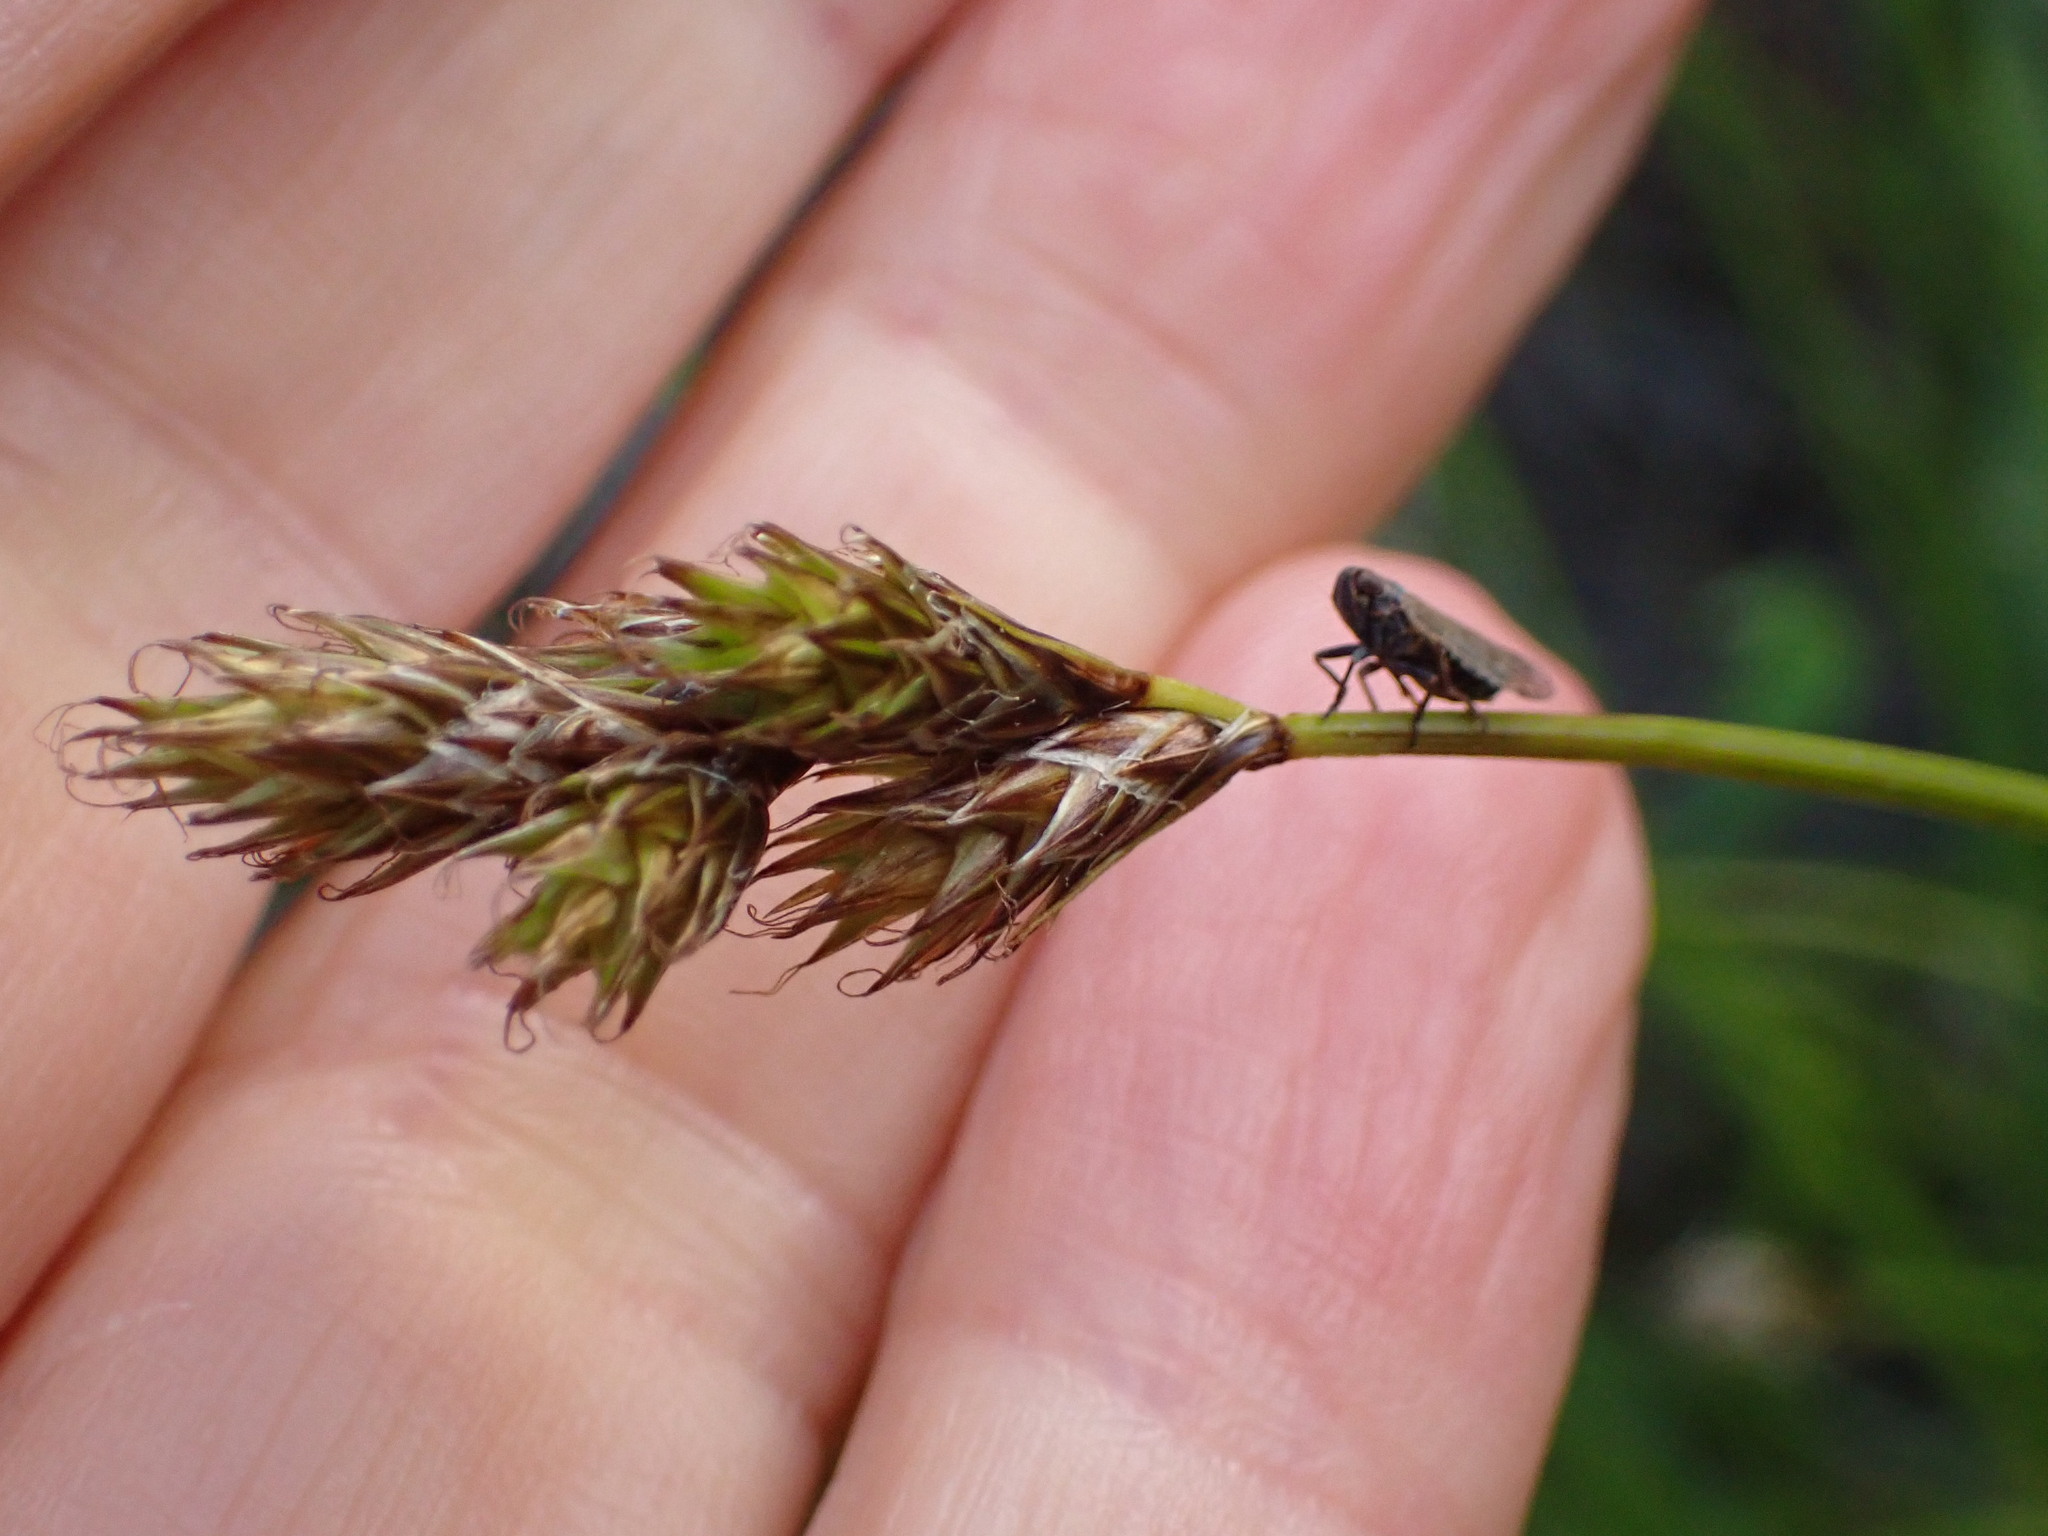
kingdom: Plantae
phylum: Tracheophyta
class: Liliopsida
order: Poales
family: Cyperaceae
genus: Carex
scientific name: Carex leporina
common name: Oval sedge
